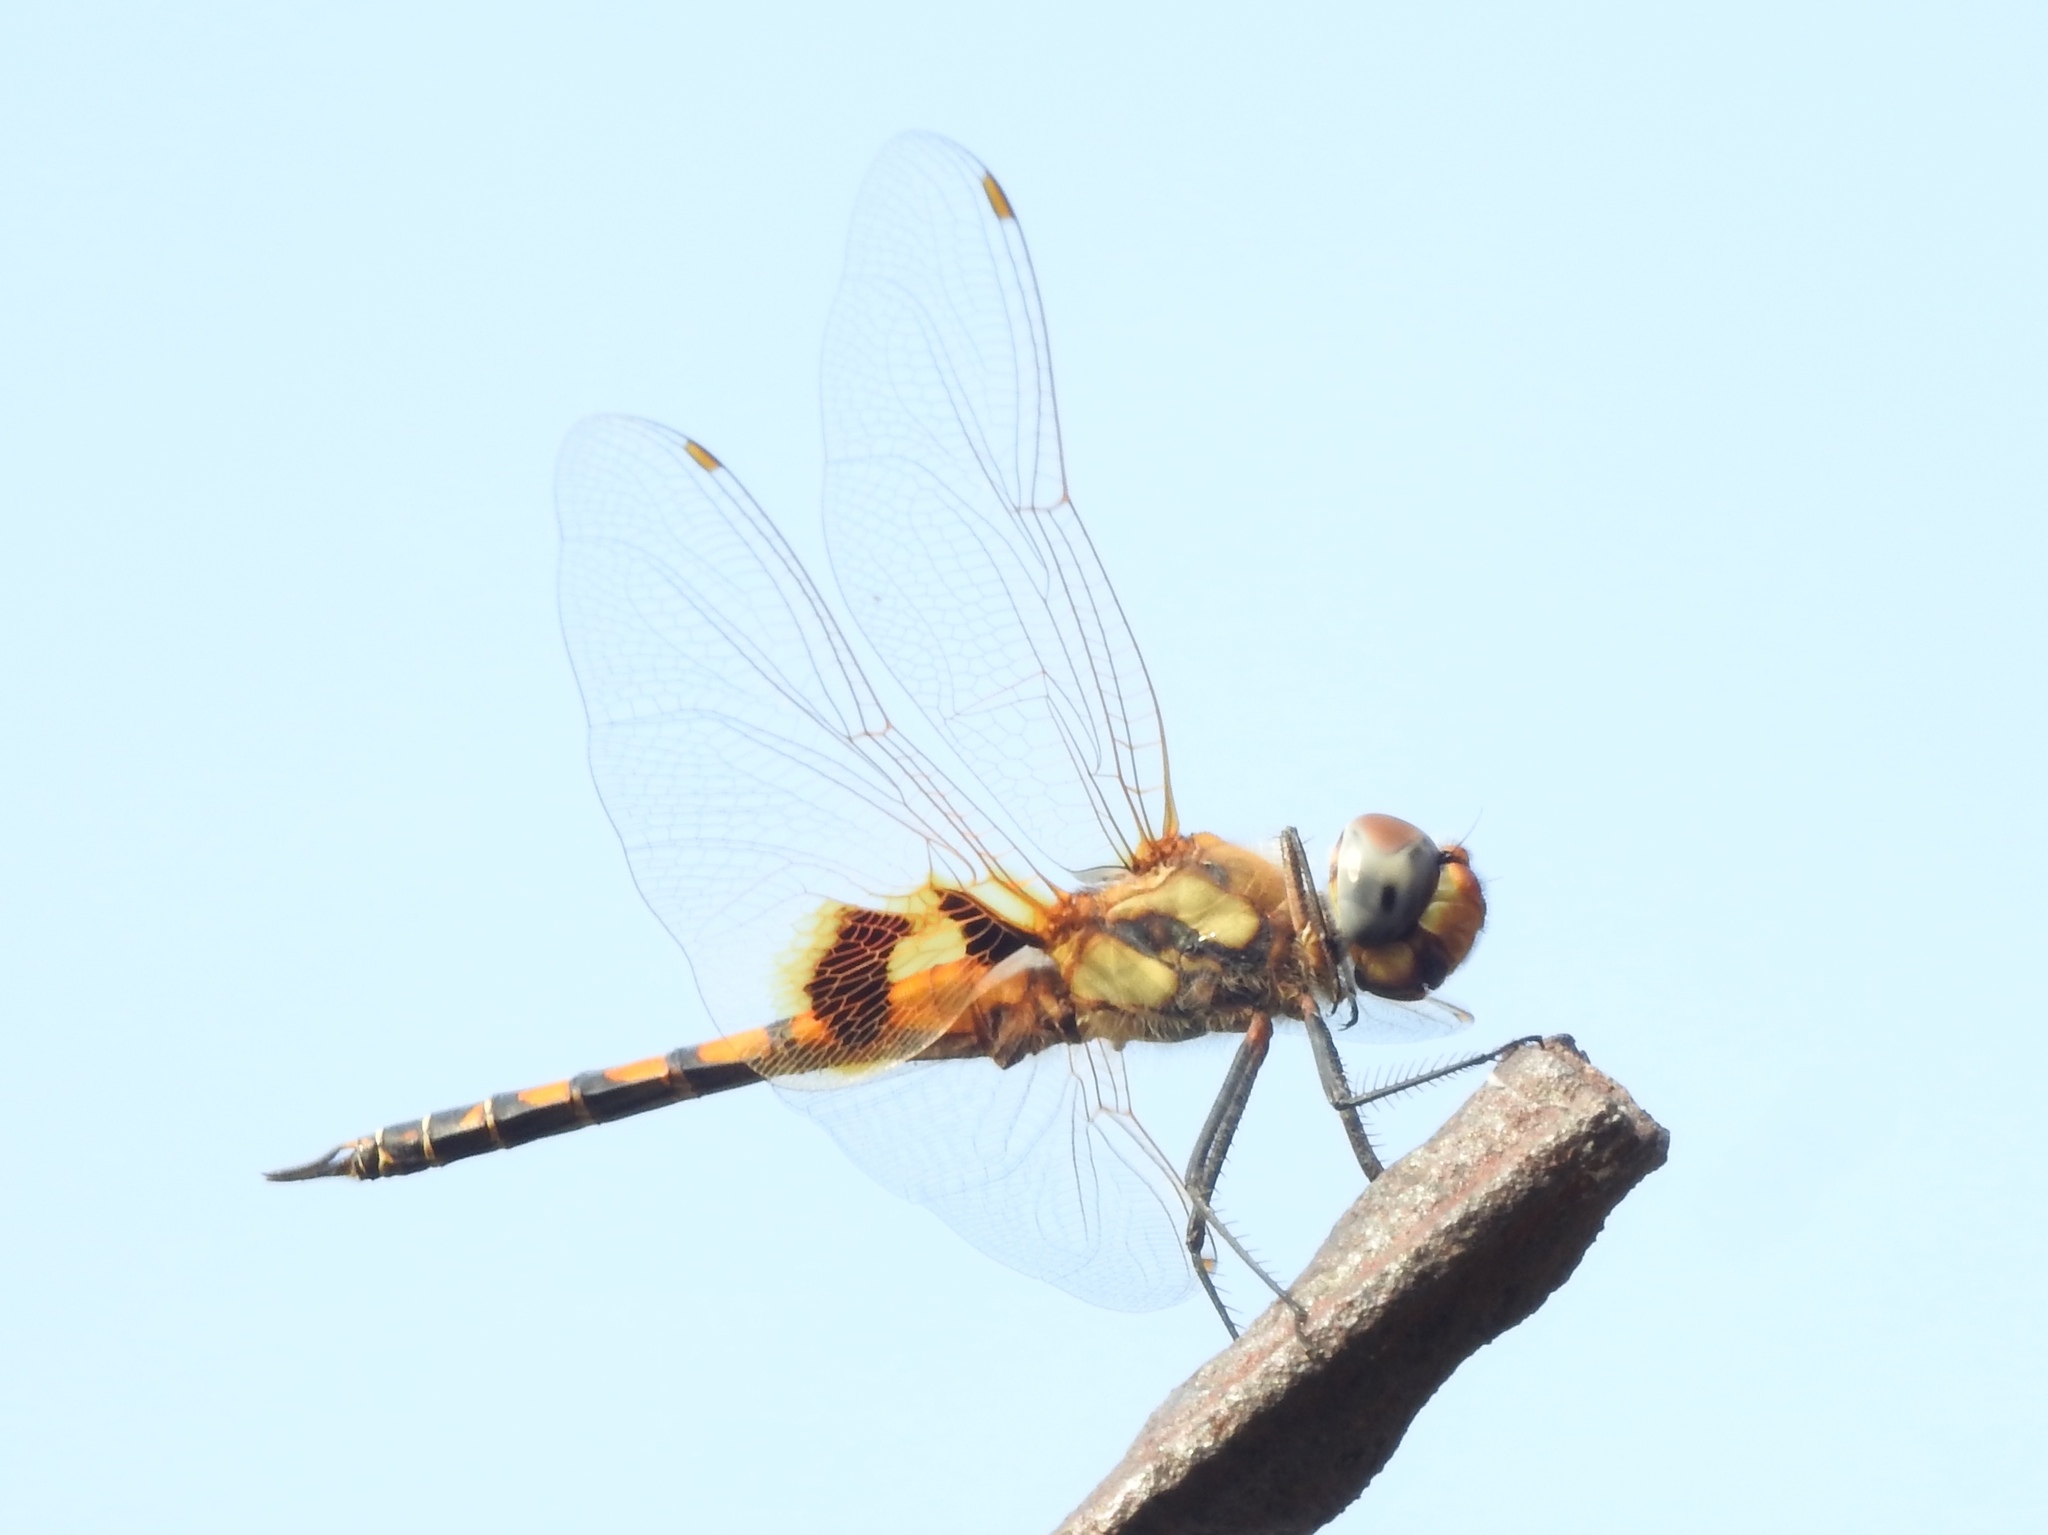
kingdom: Animalia
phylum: Arthropoda
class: Insecta
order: Odonata
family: Libellulidae
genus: Tramea
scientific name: Tramea basilaris
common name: Keyhole glider
